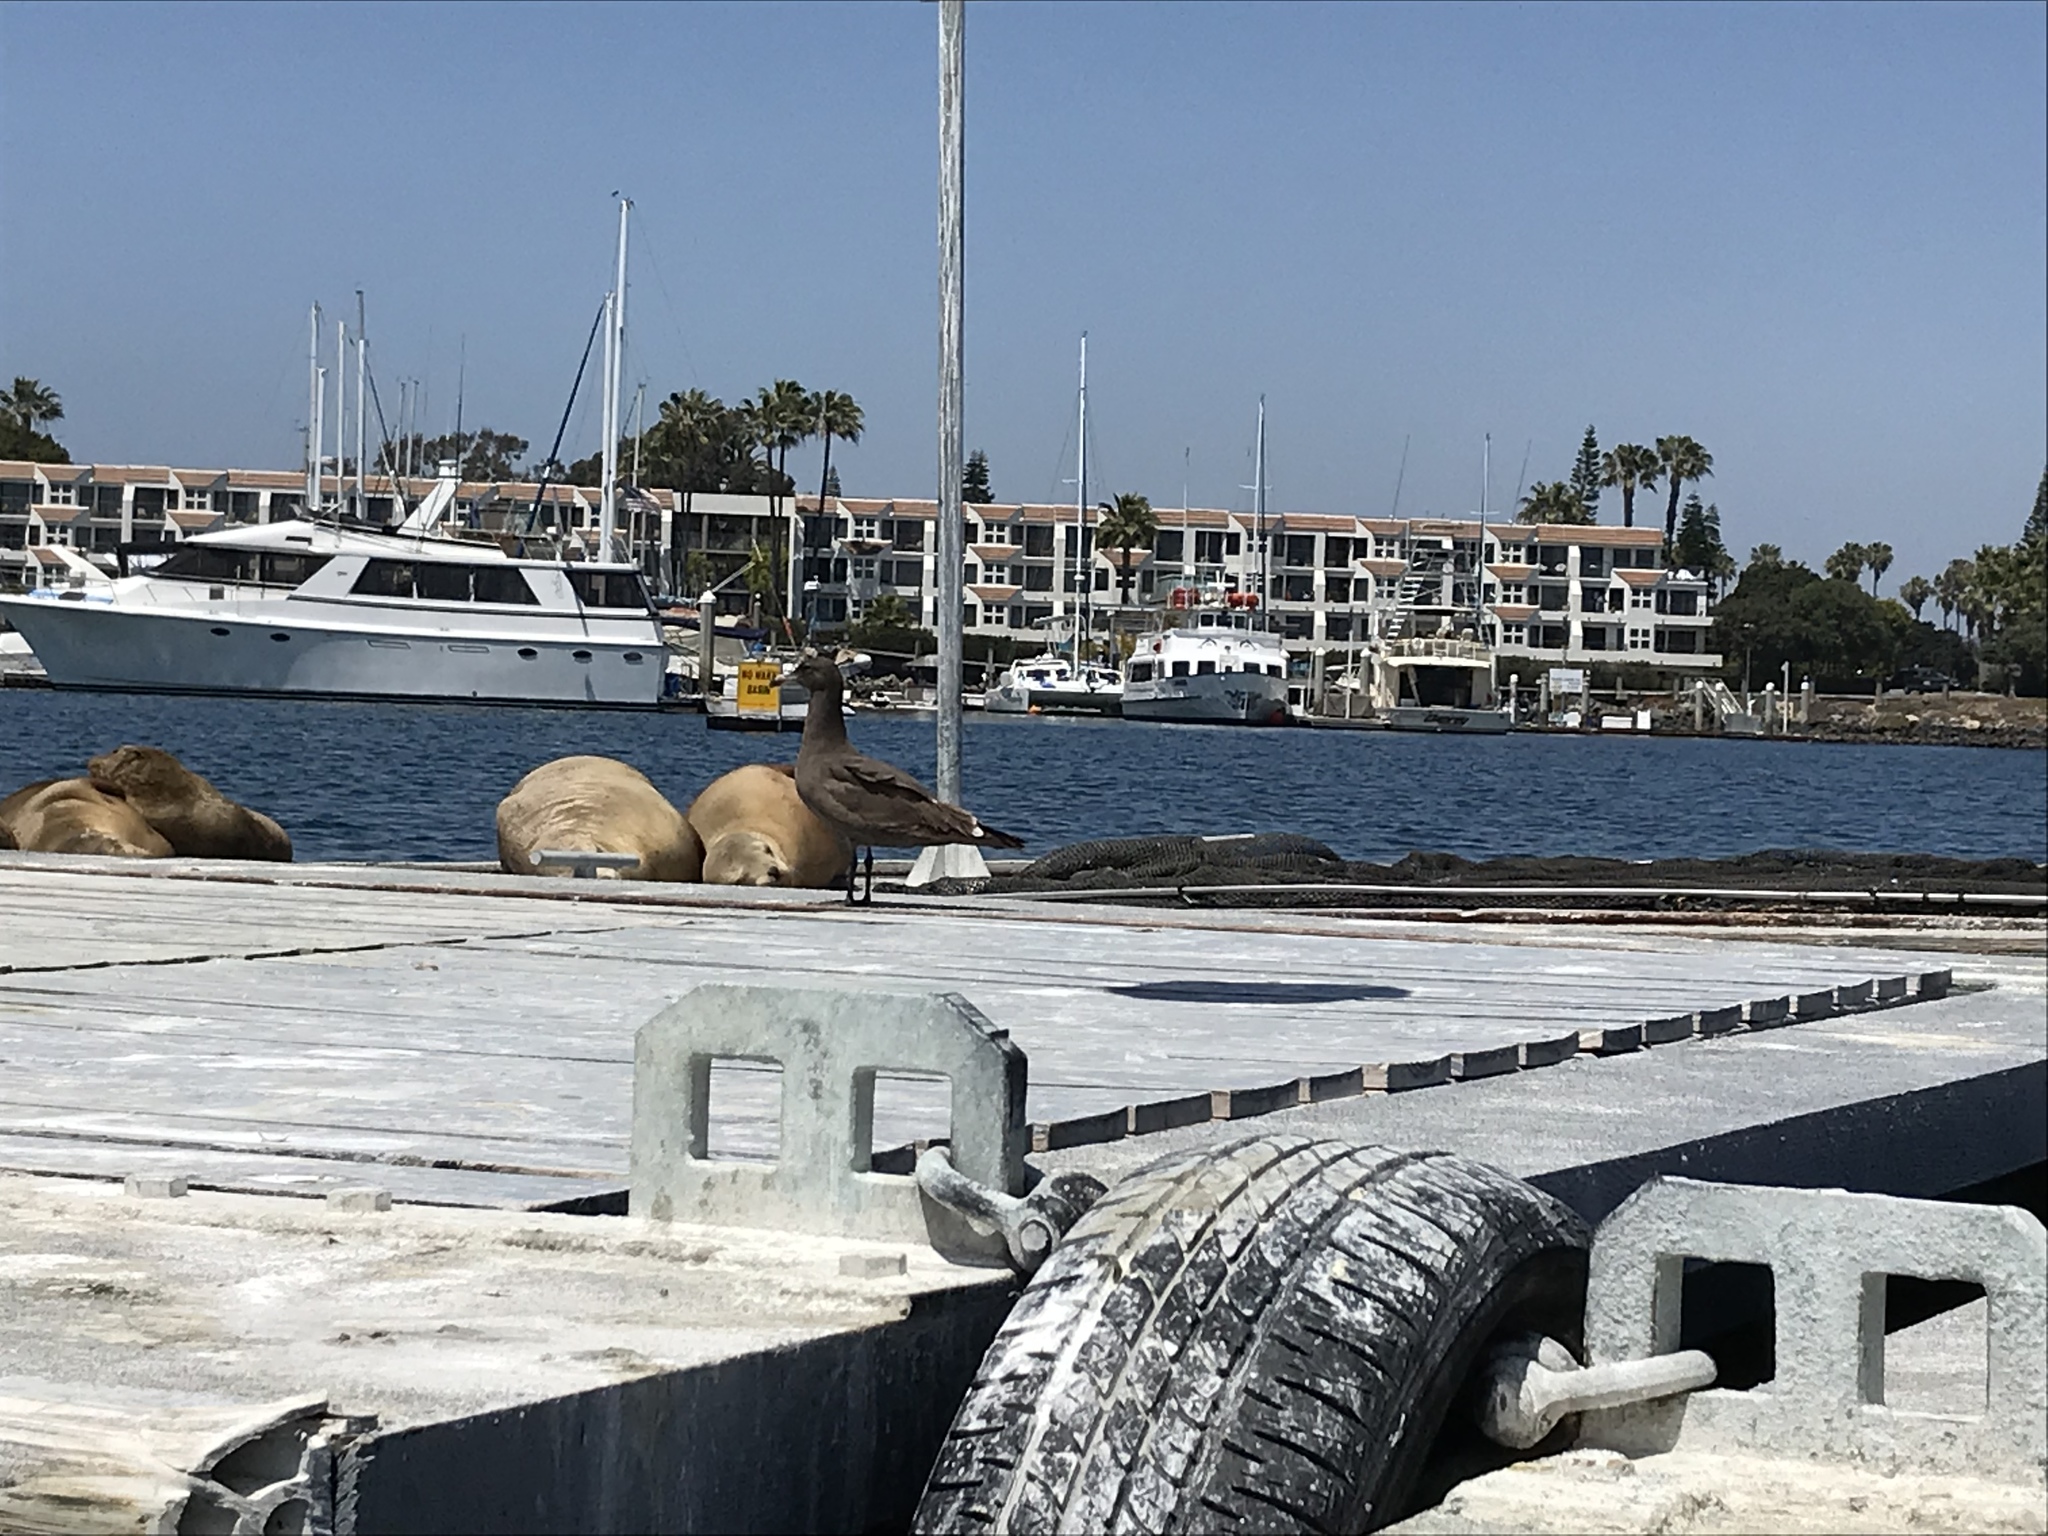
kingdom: Animalia
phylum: Chordata
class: Aves
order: Charadriiformes
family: Laridae
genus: Larus
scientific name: Larus heermanni
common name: Heermann's gull
